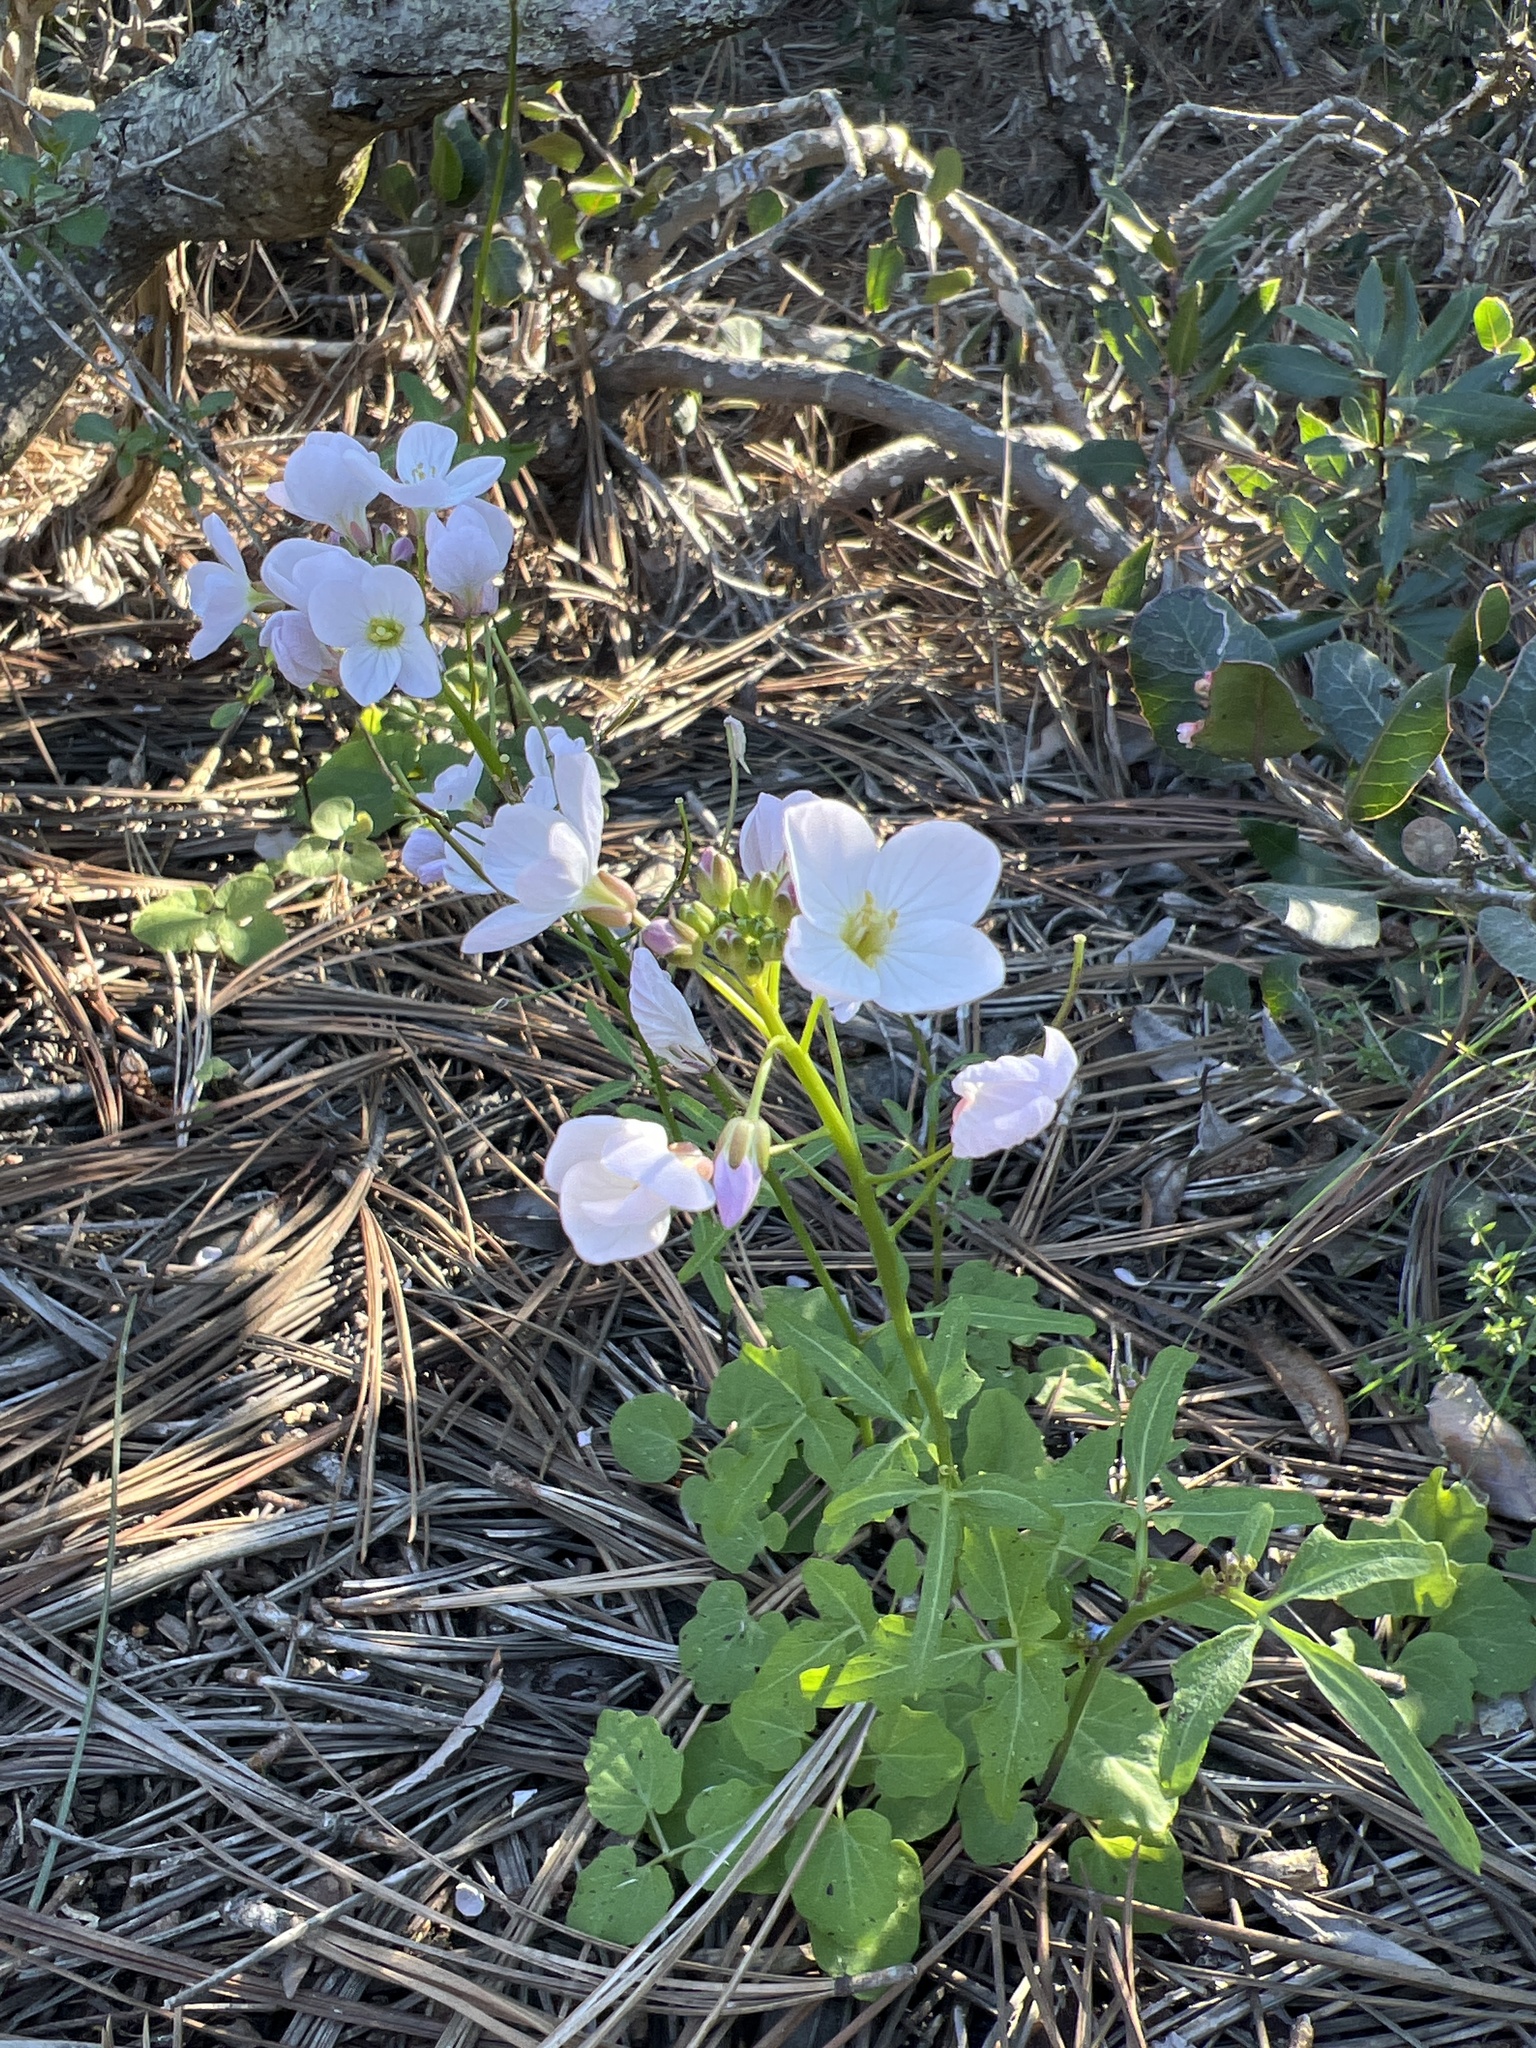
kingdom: Plantae
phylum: Tracheophyta
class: Magnoliopsida
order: Brassicales
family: Brassicaceae
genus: Cardamine
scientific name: Cardamine californica
